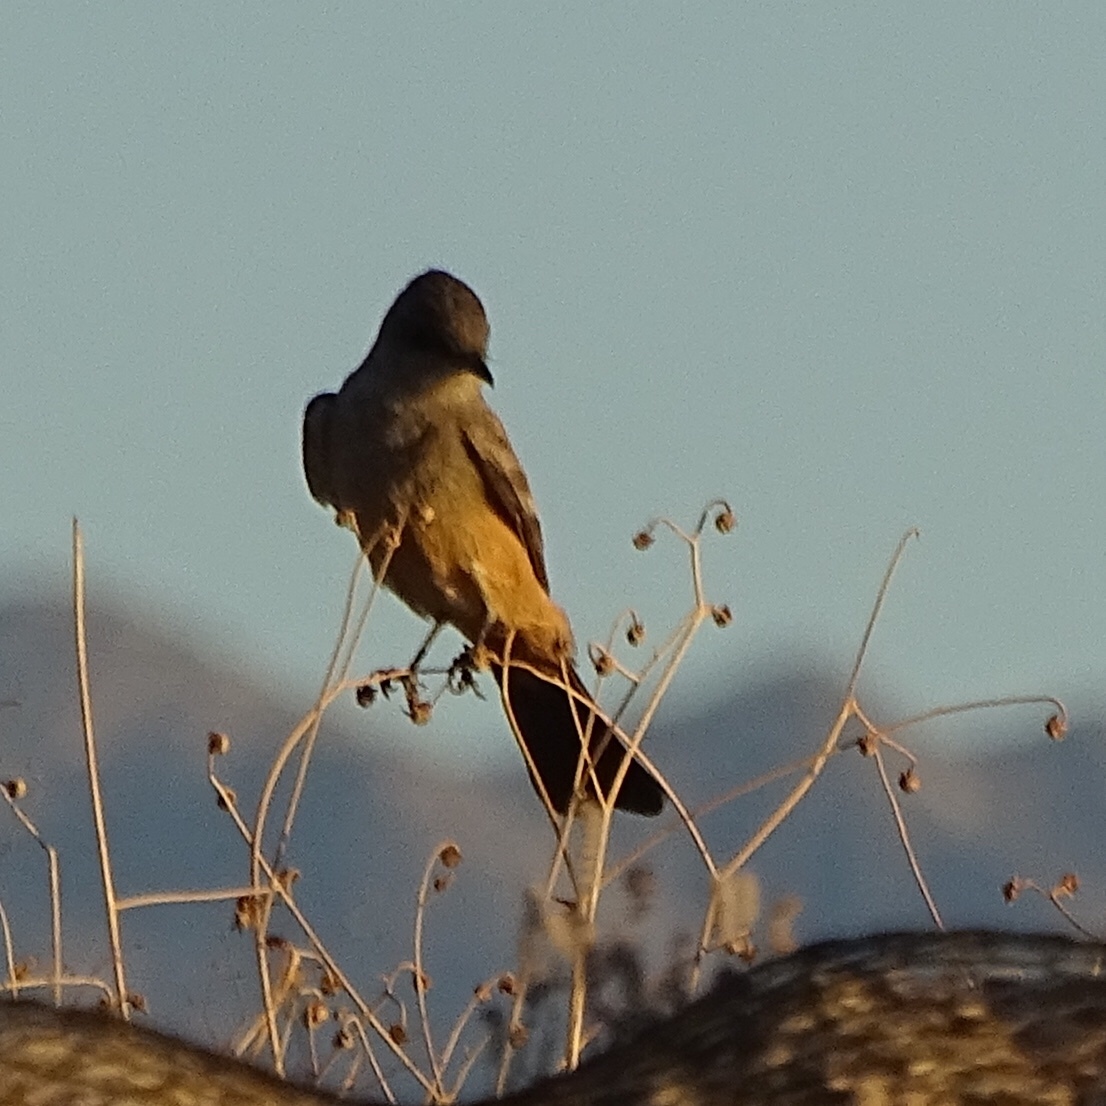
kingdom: Animalia
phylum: Chordata
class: Aves
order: Passeriformes
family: Tyrannidae
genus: Sayornis
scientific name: Sayornis saya
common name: Say's phoebe
